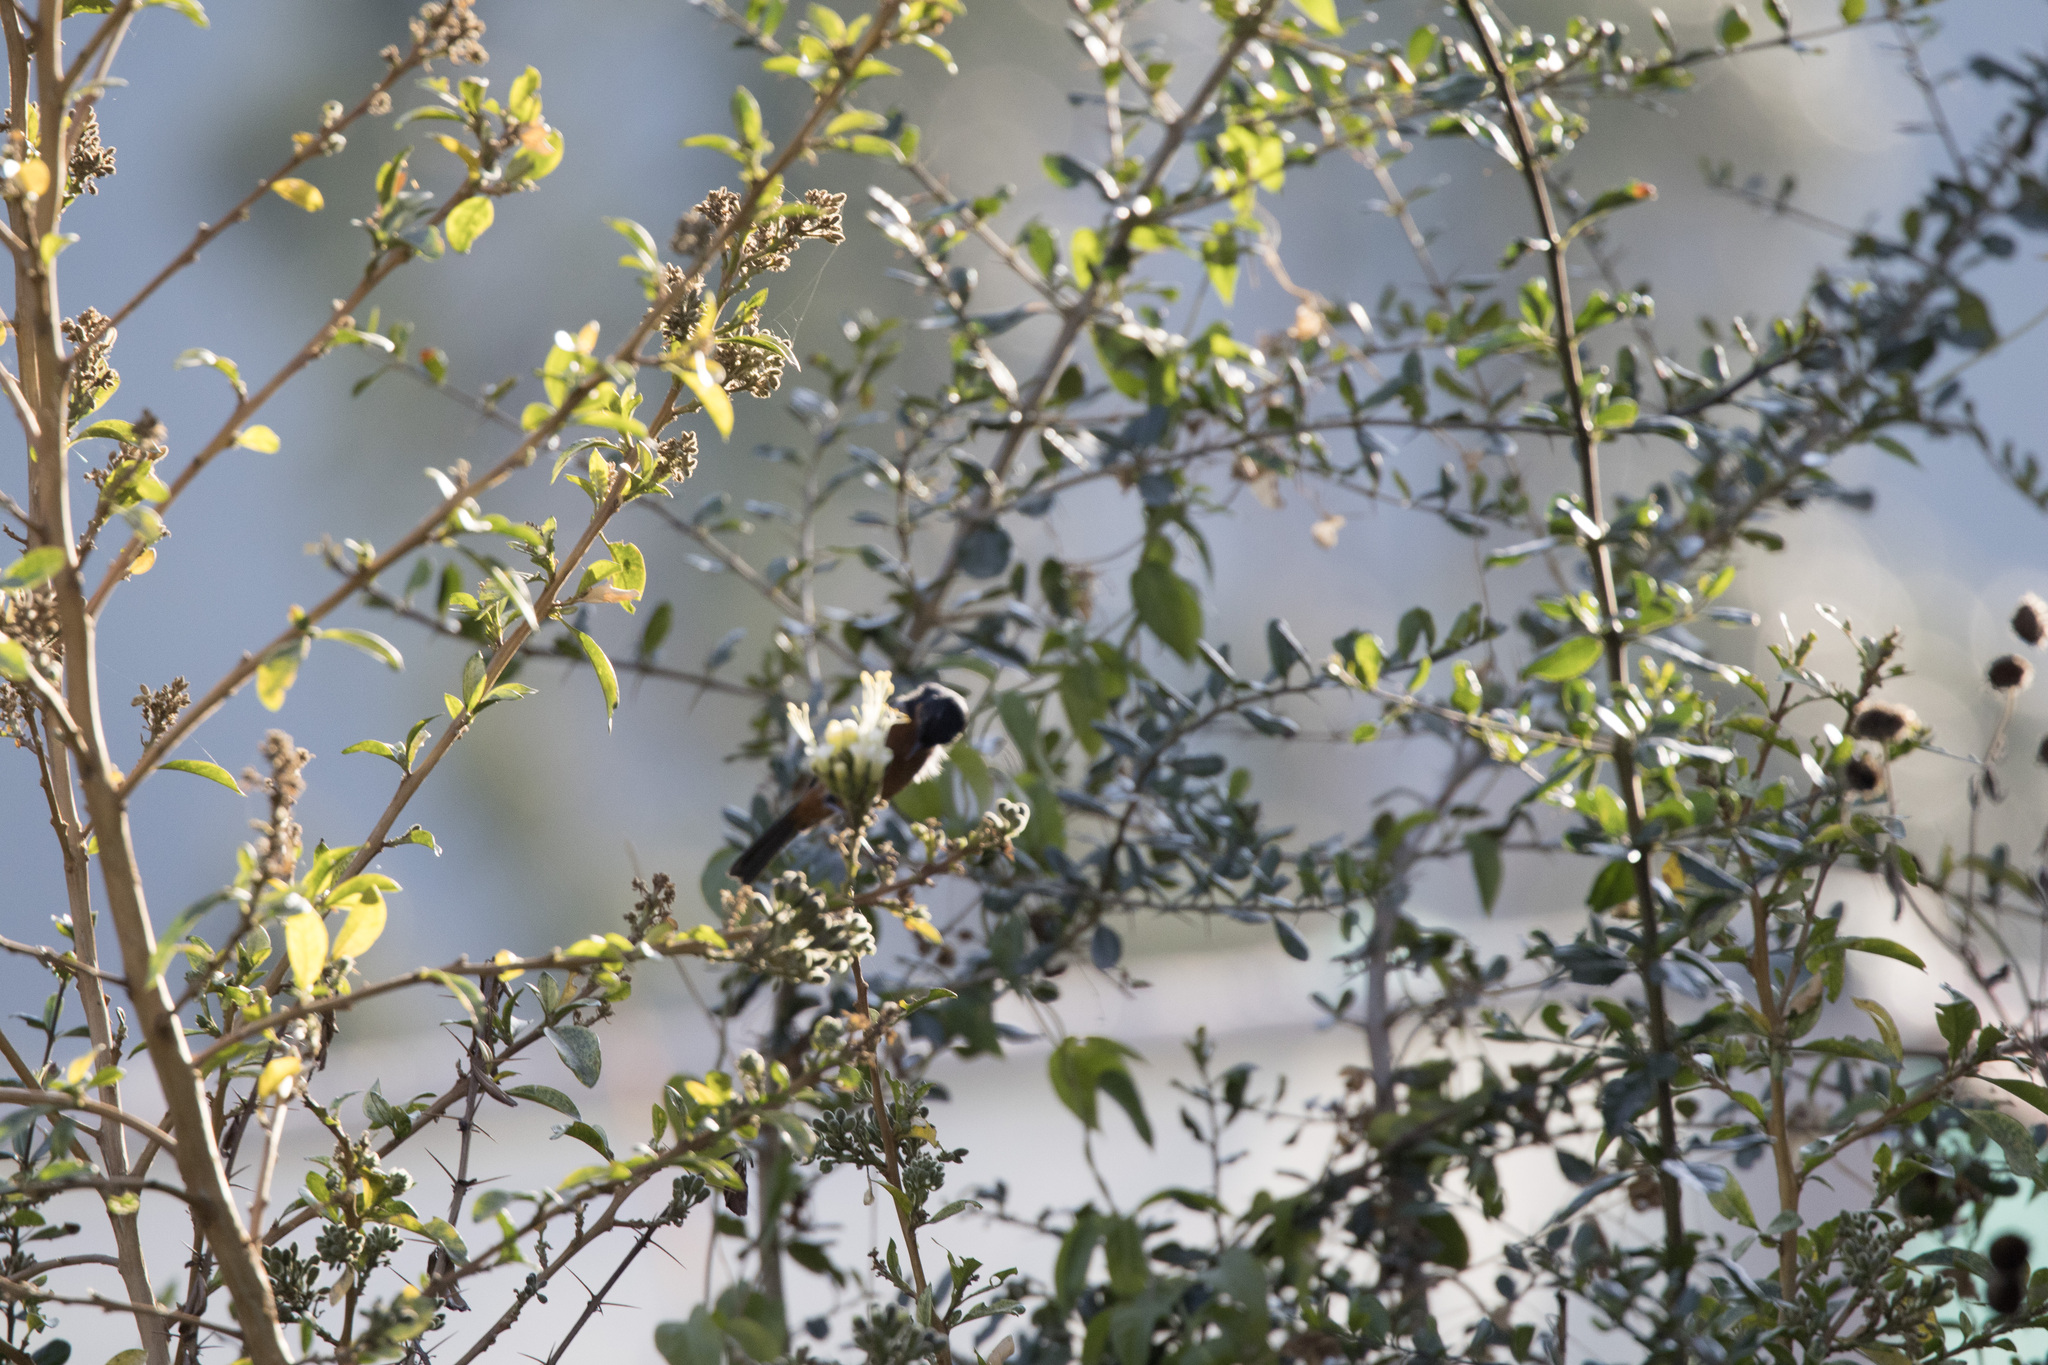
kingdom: Animalia
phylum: Chordata
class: Aves
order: Passeriformes
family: Thraupidae
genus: Diglossa
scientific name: Diglossa brunneiventris
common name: Black-throated flowerpiercer
